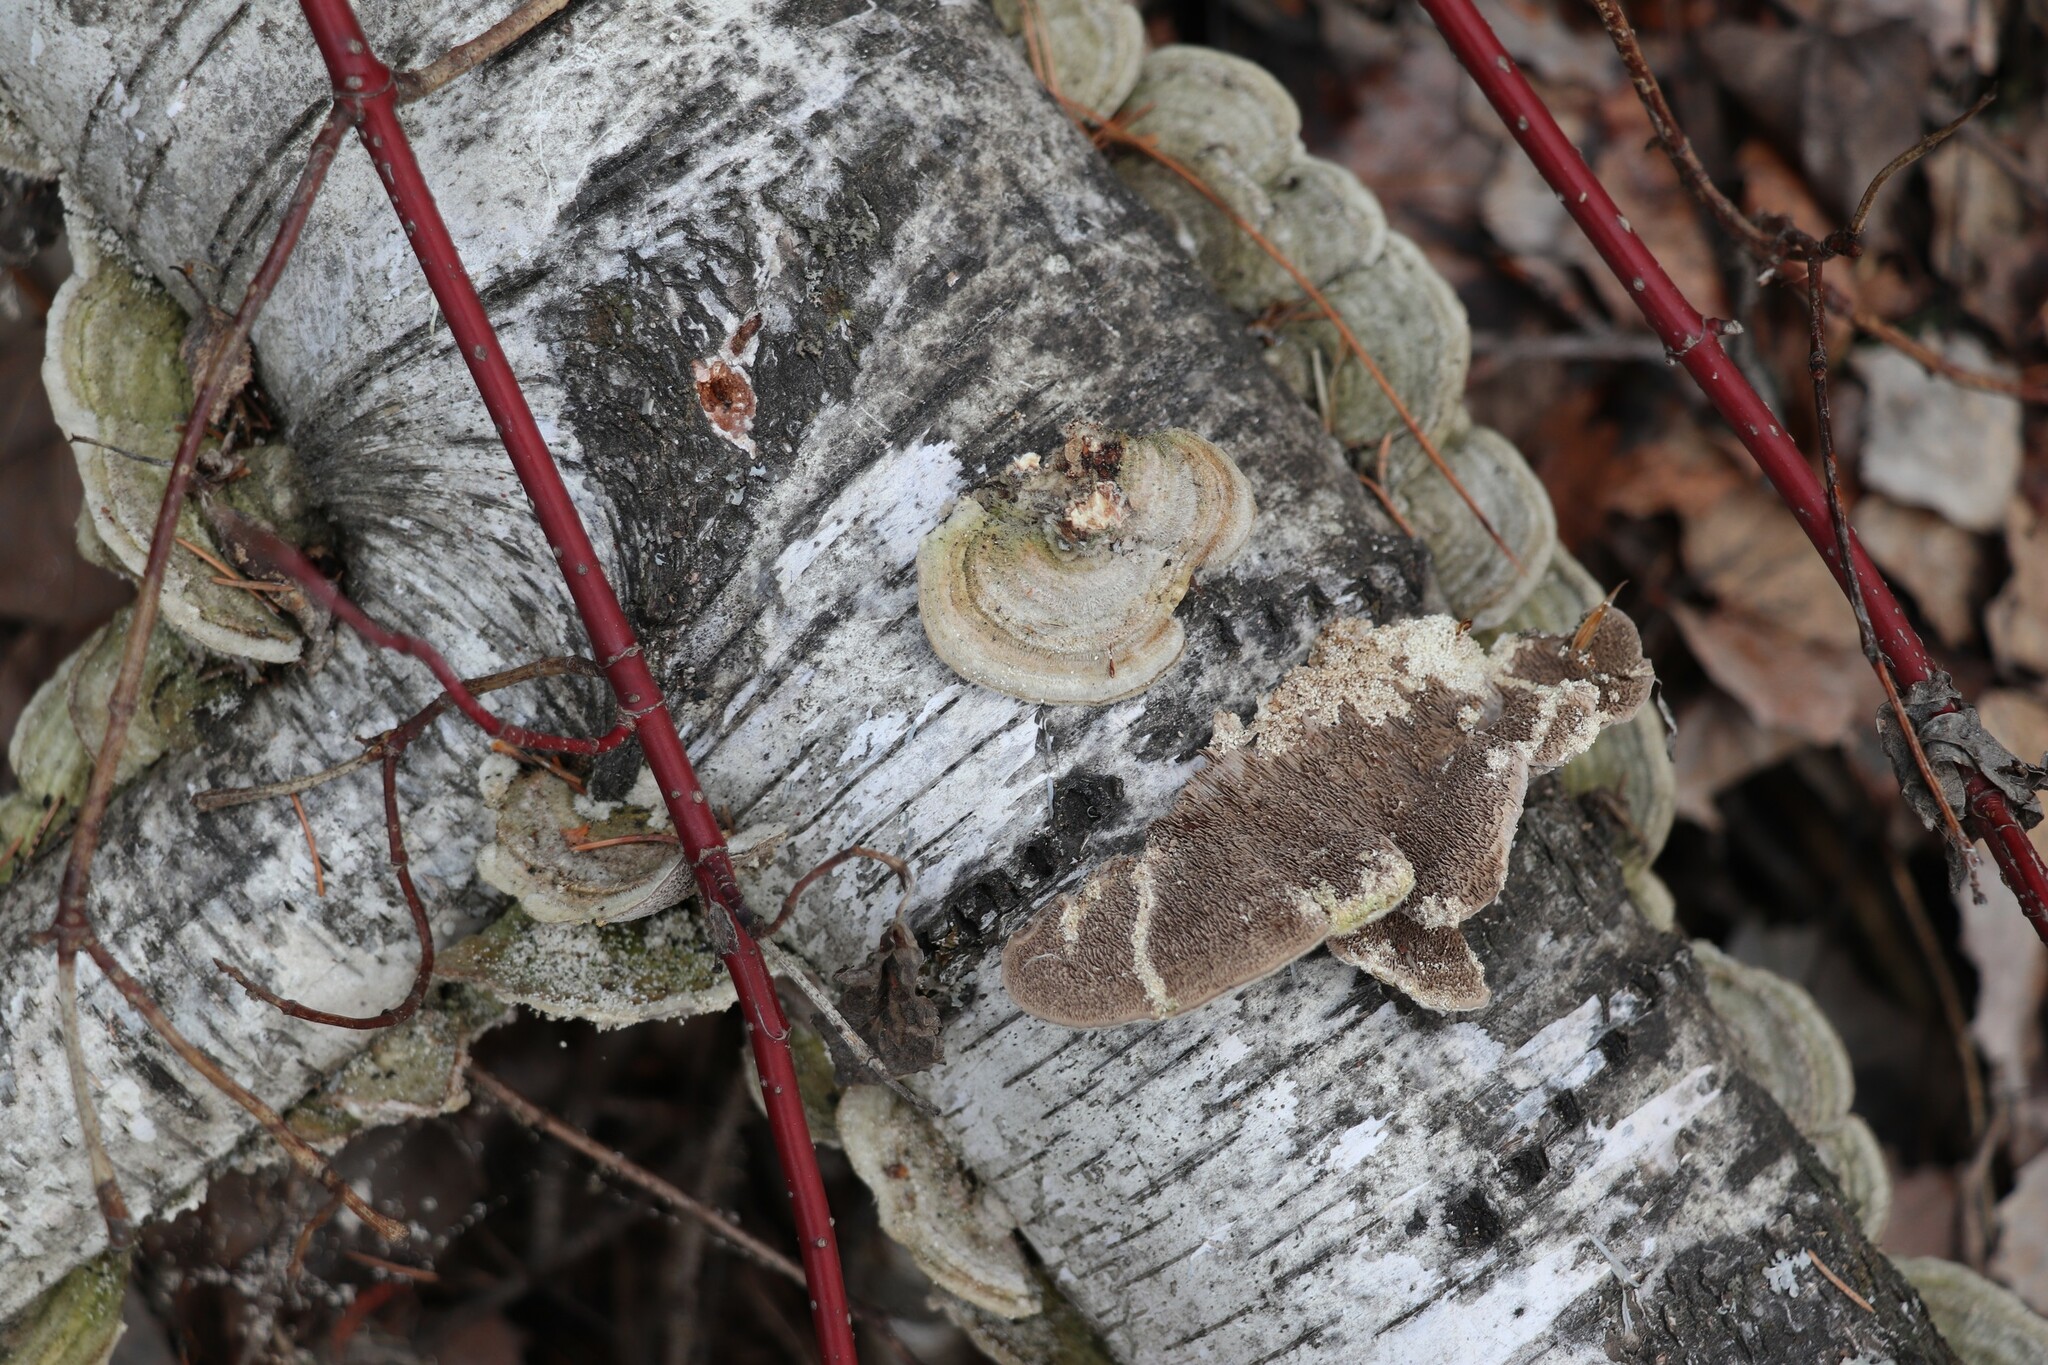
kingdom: Fungi
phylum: Basidiomycota
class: Agaricomycetes
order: Polyporales
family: Cerrenaceae
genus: Cerrena
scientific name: Cerrena unicolor
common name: Mossy maze polypore
